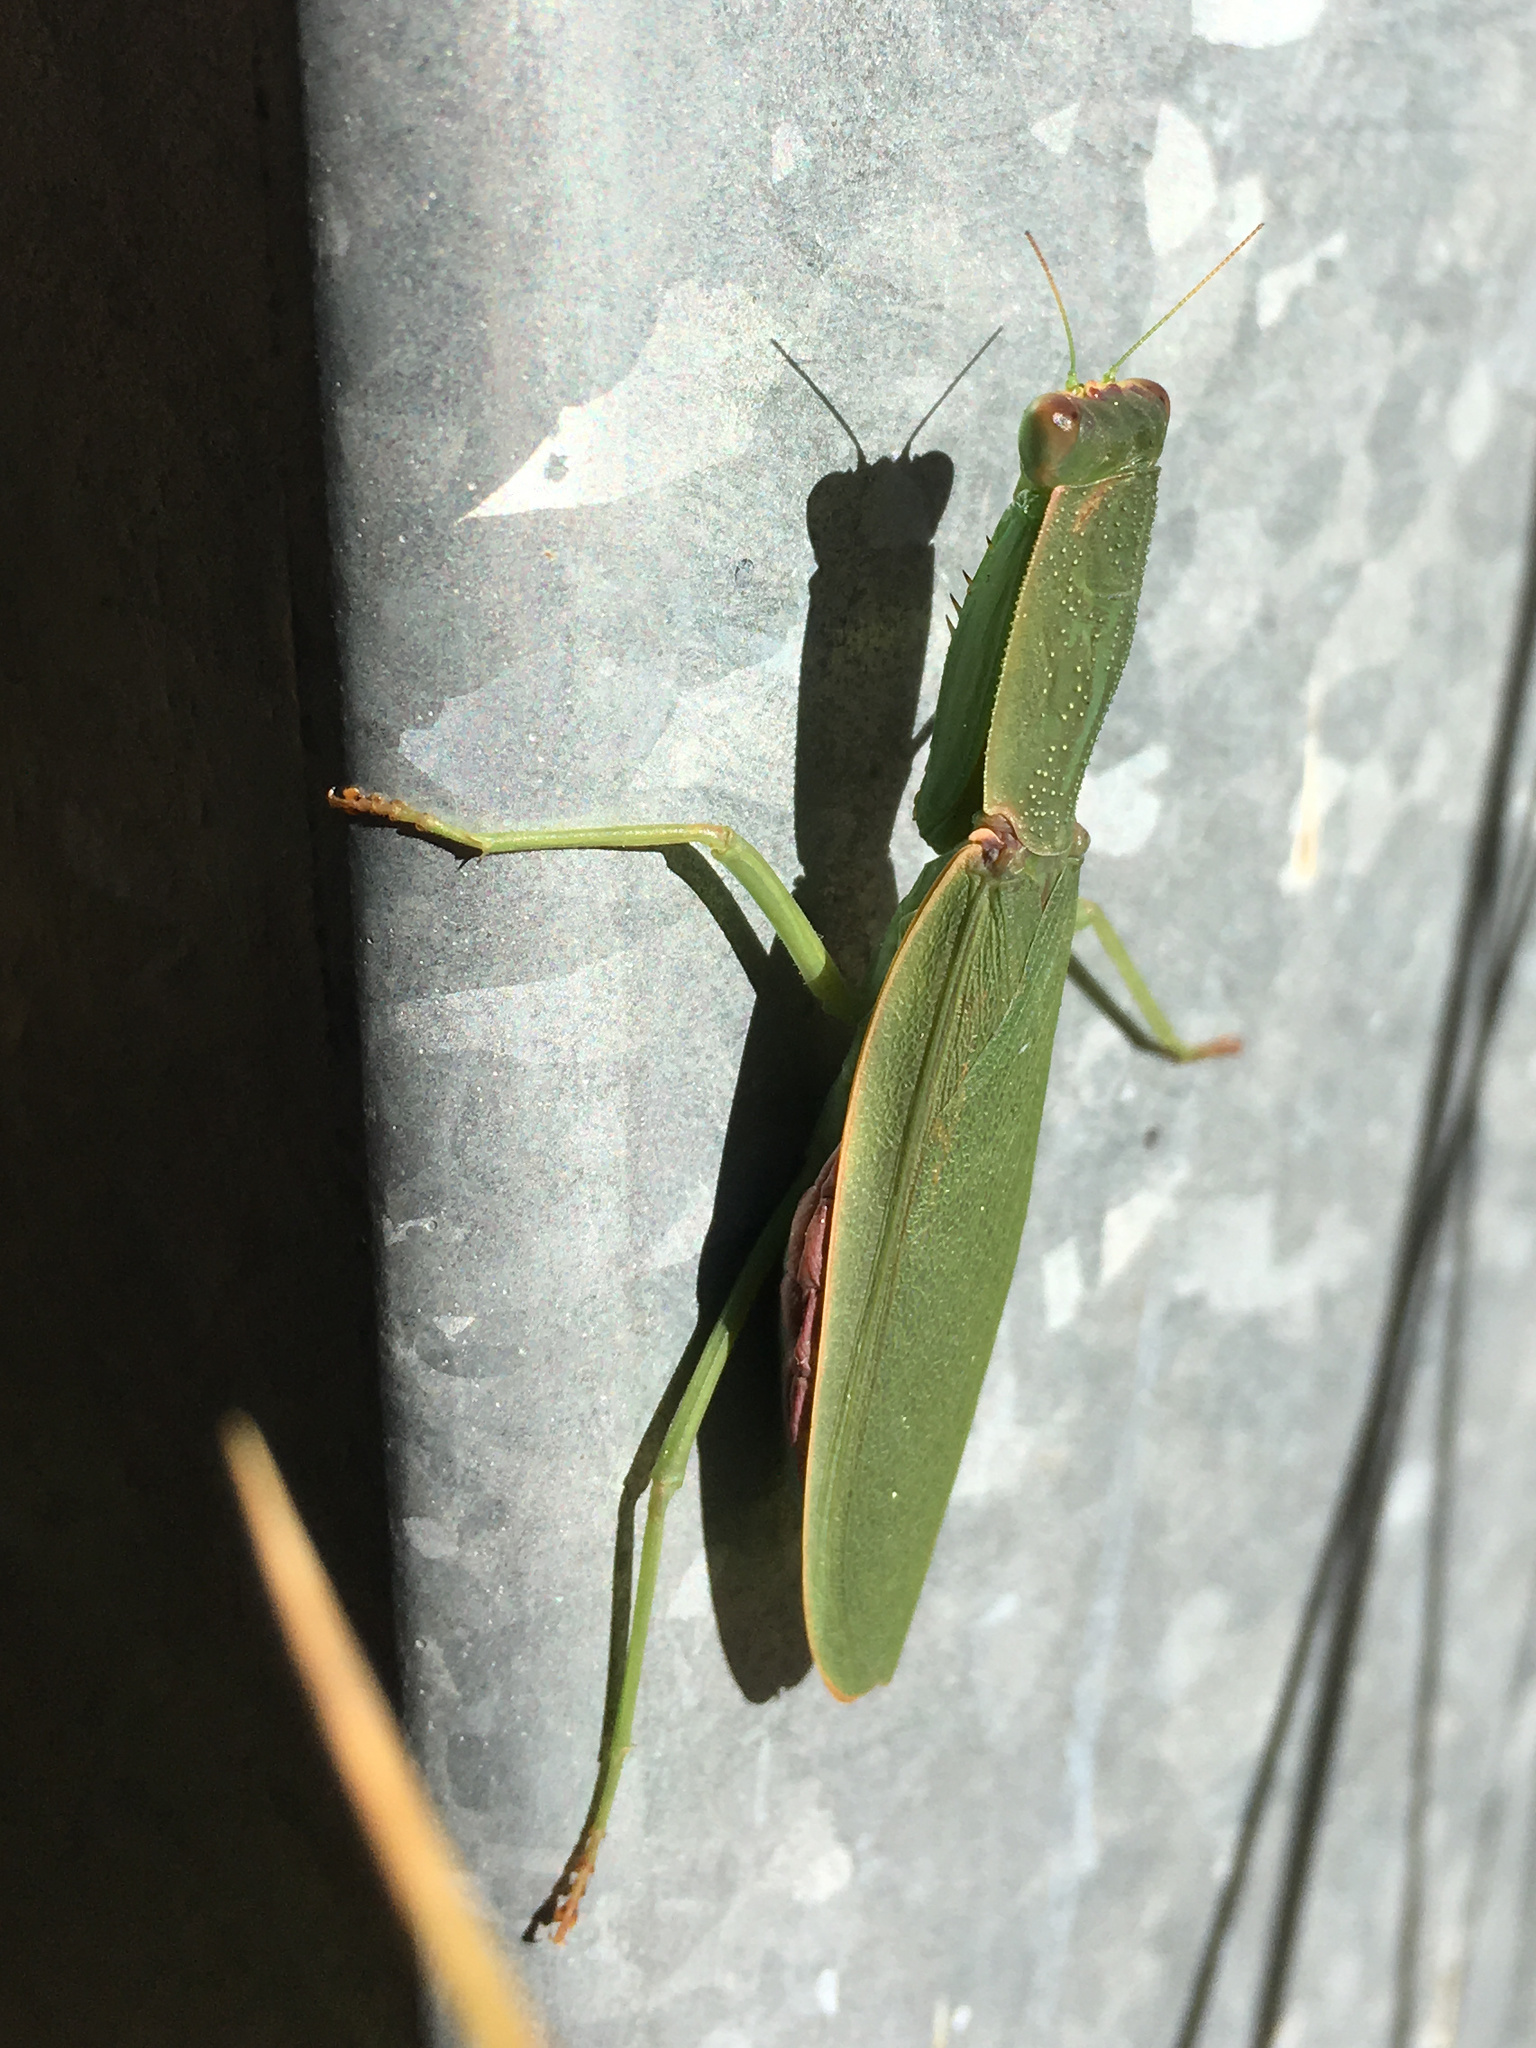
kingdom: Animalia
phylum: Arthropoda
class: Insecta
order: Mantodea
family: Mantidae
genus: Orthodera
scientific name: Orthodera novaezealandiae
